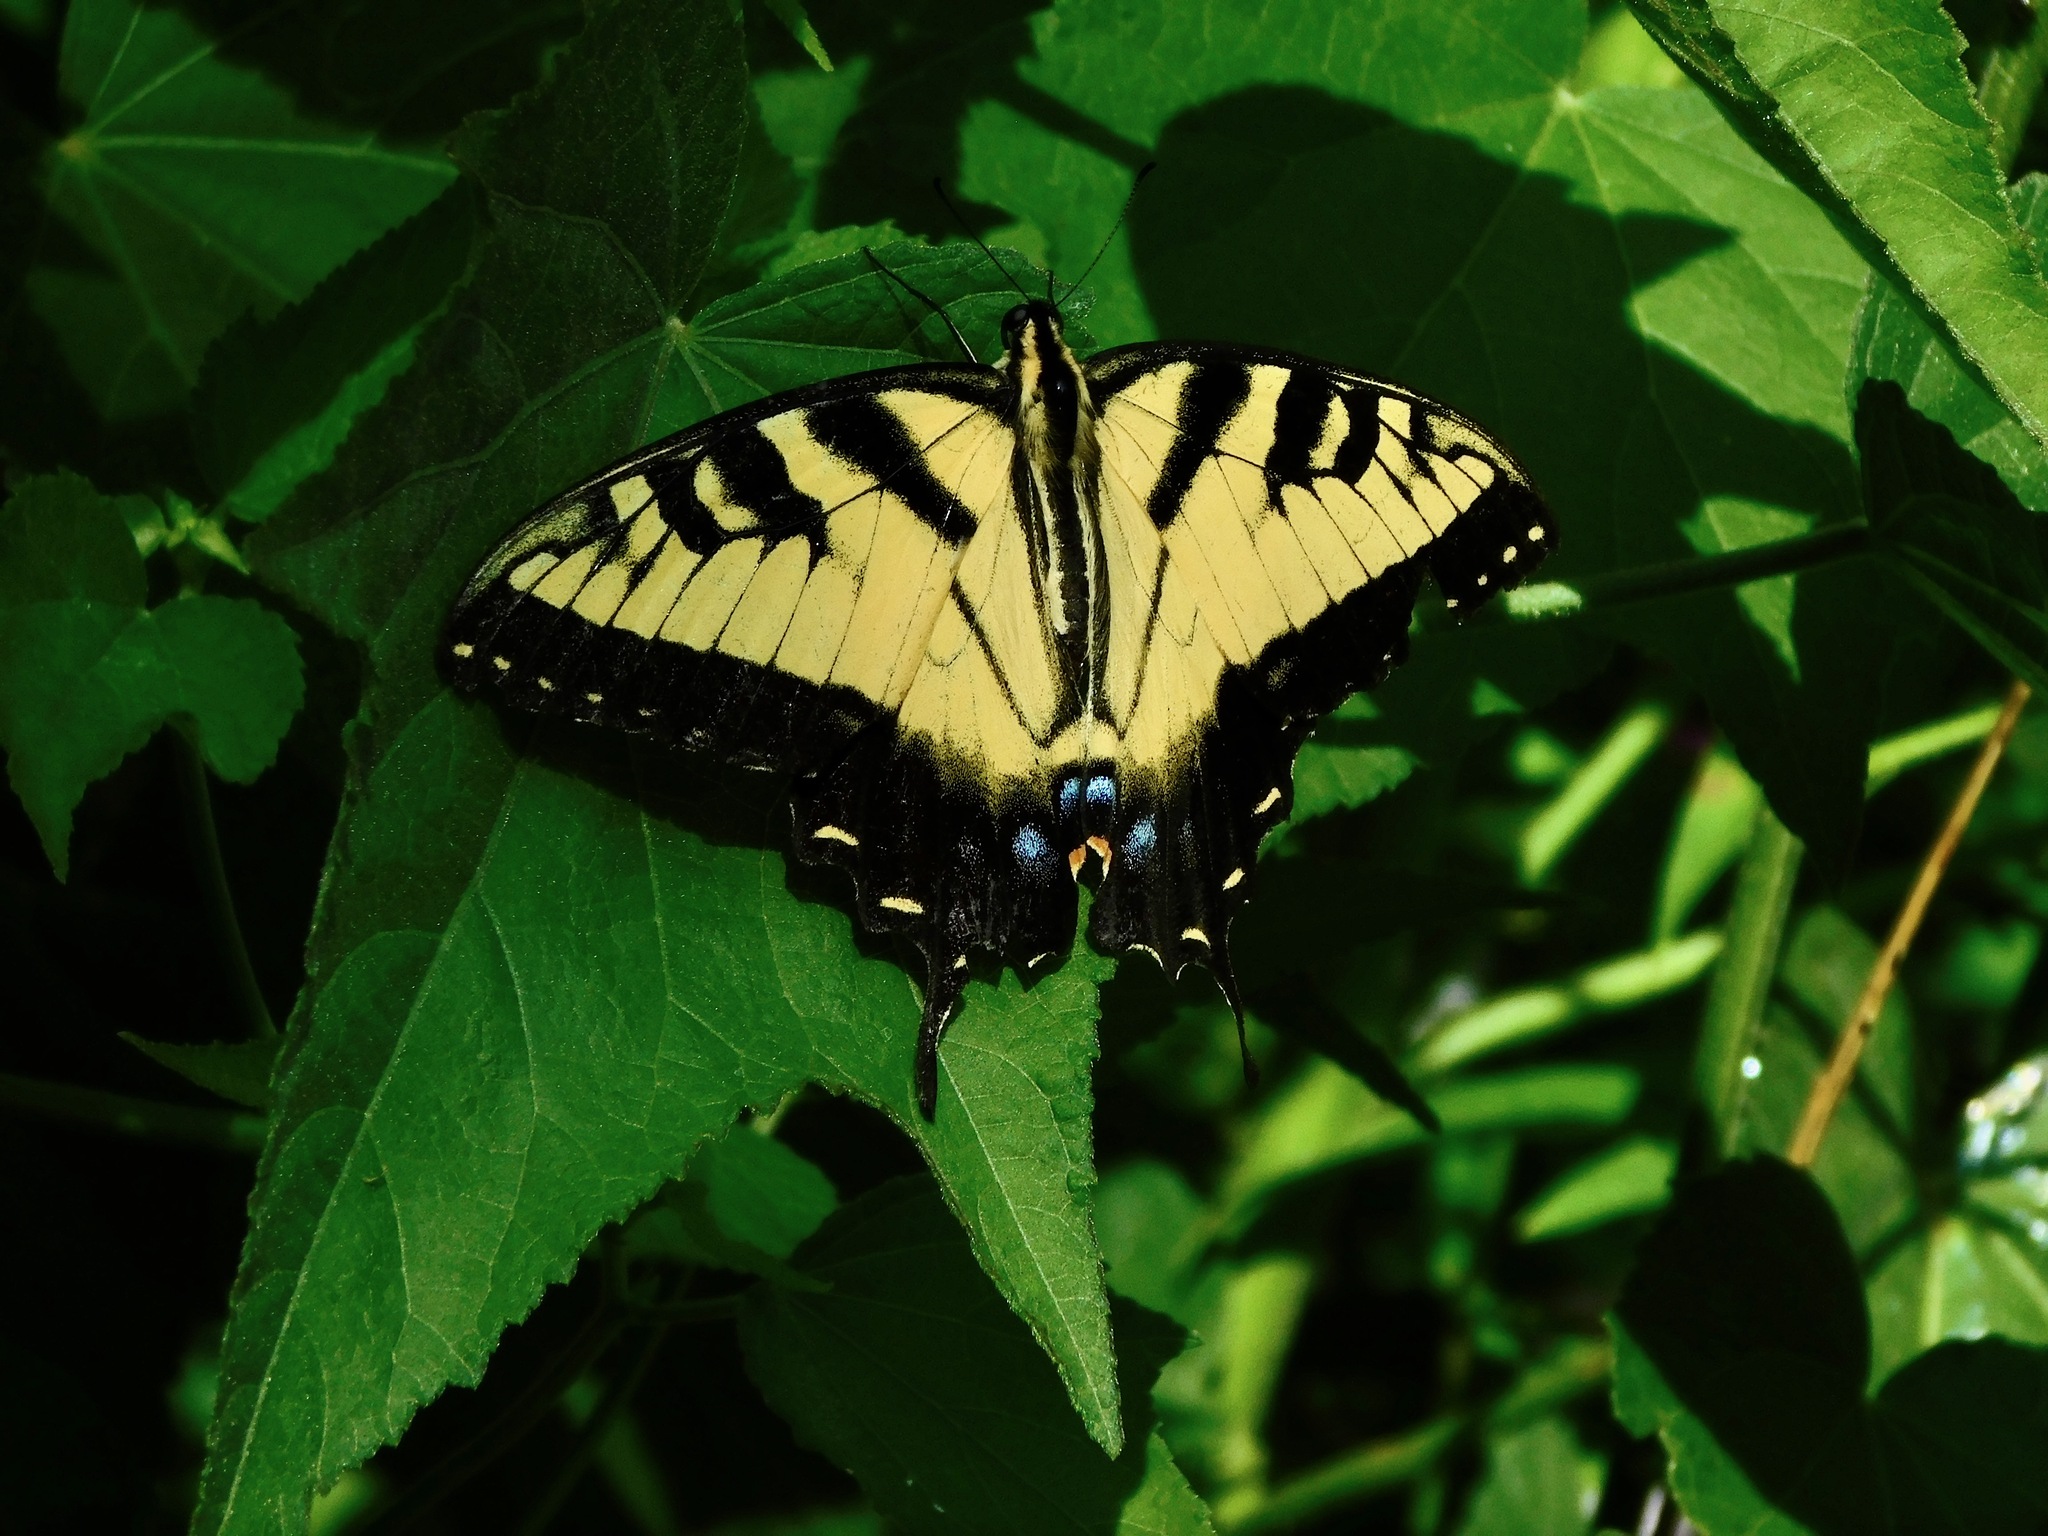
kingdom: Animalia
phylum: Arthropoda
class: Insecta
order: Lepidoptera
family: Papilionidae
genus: Papilio
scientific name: Papilio glaucus
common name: Tiger swallowtail
